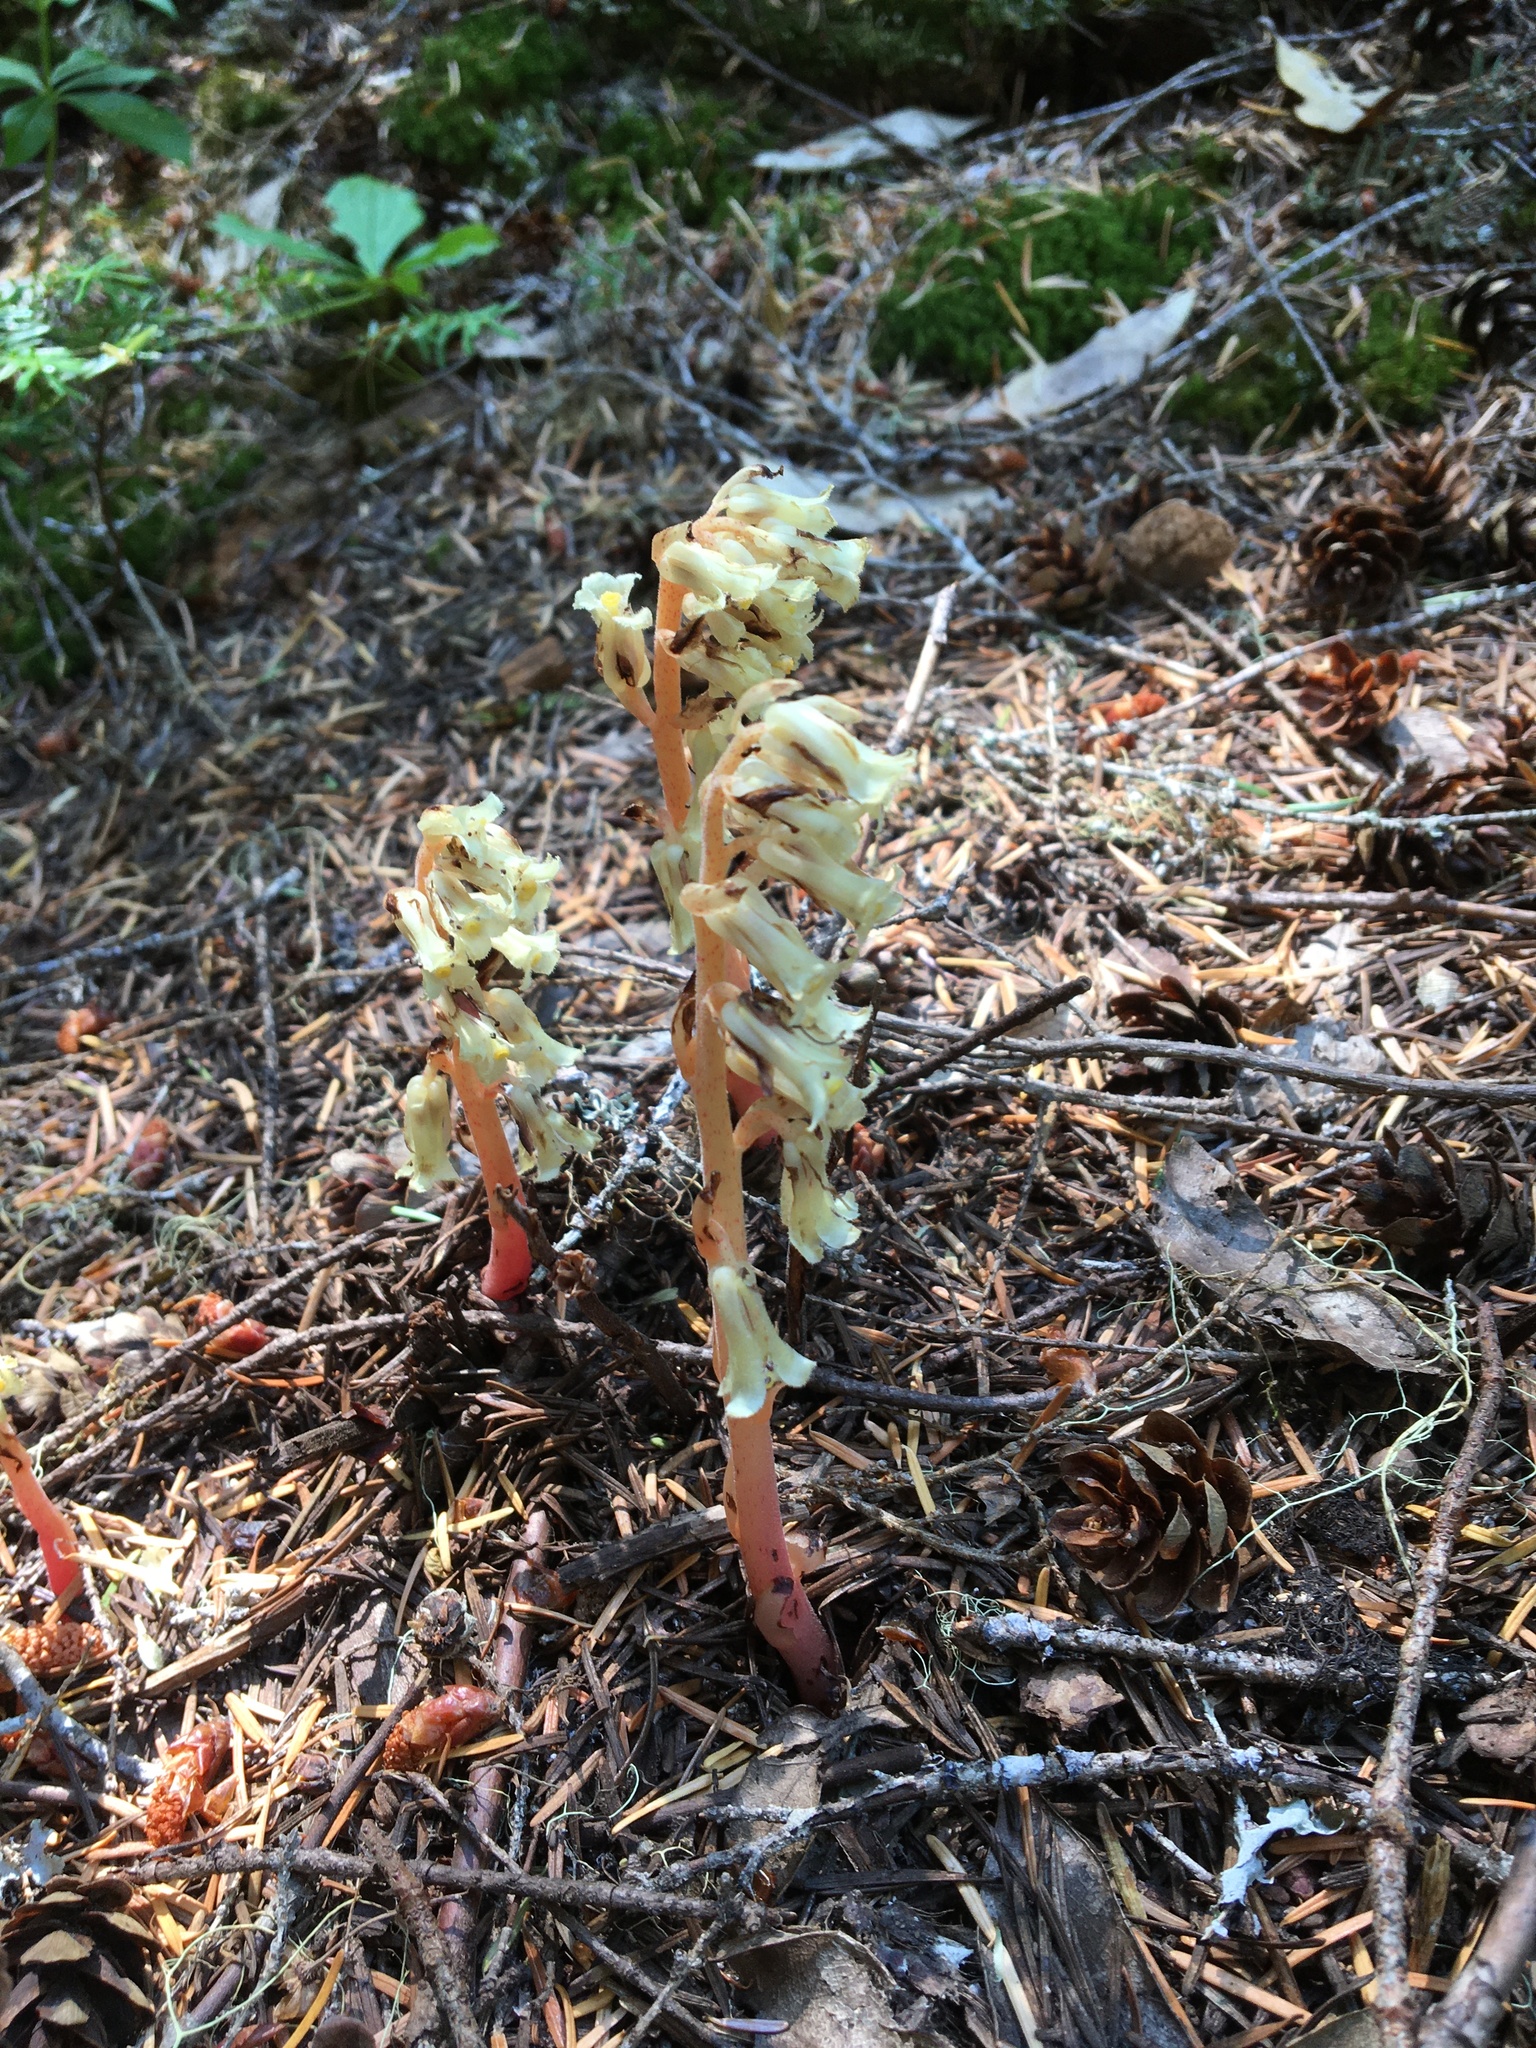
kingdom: Plantae
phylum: Tracheophyta
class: Magnoliopsida
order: Ericales
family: Ericaceae
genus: Hypopitys
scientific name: Hypopitys monotropa
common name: Yellow bird's-nest
